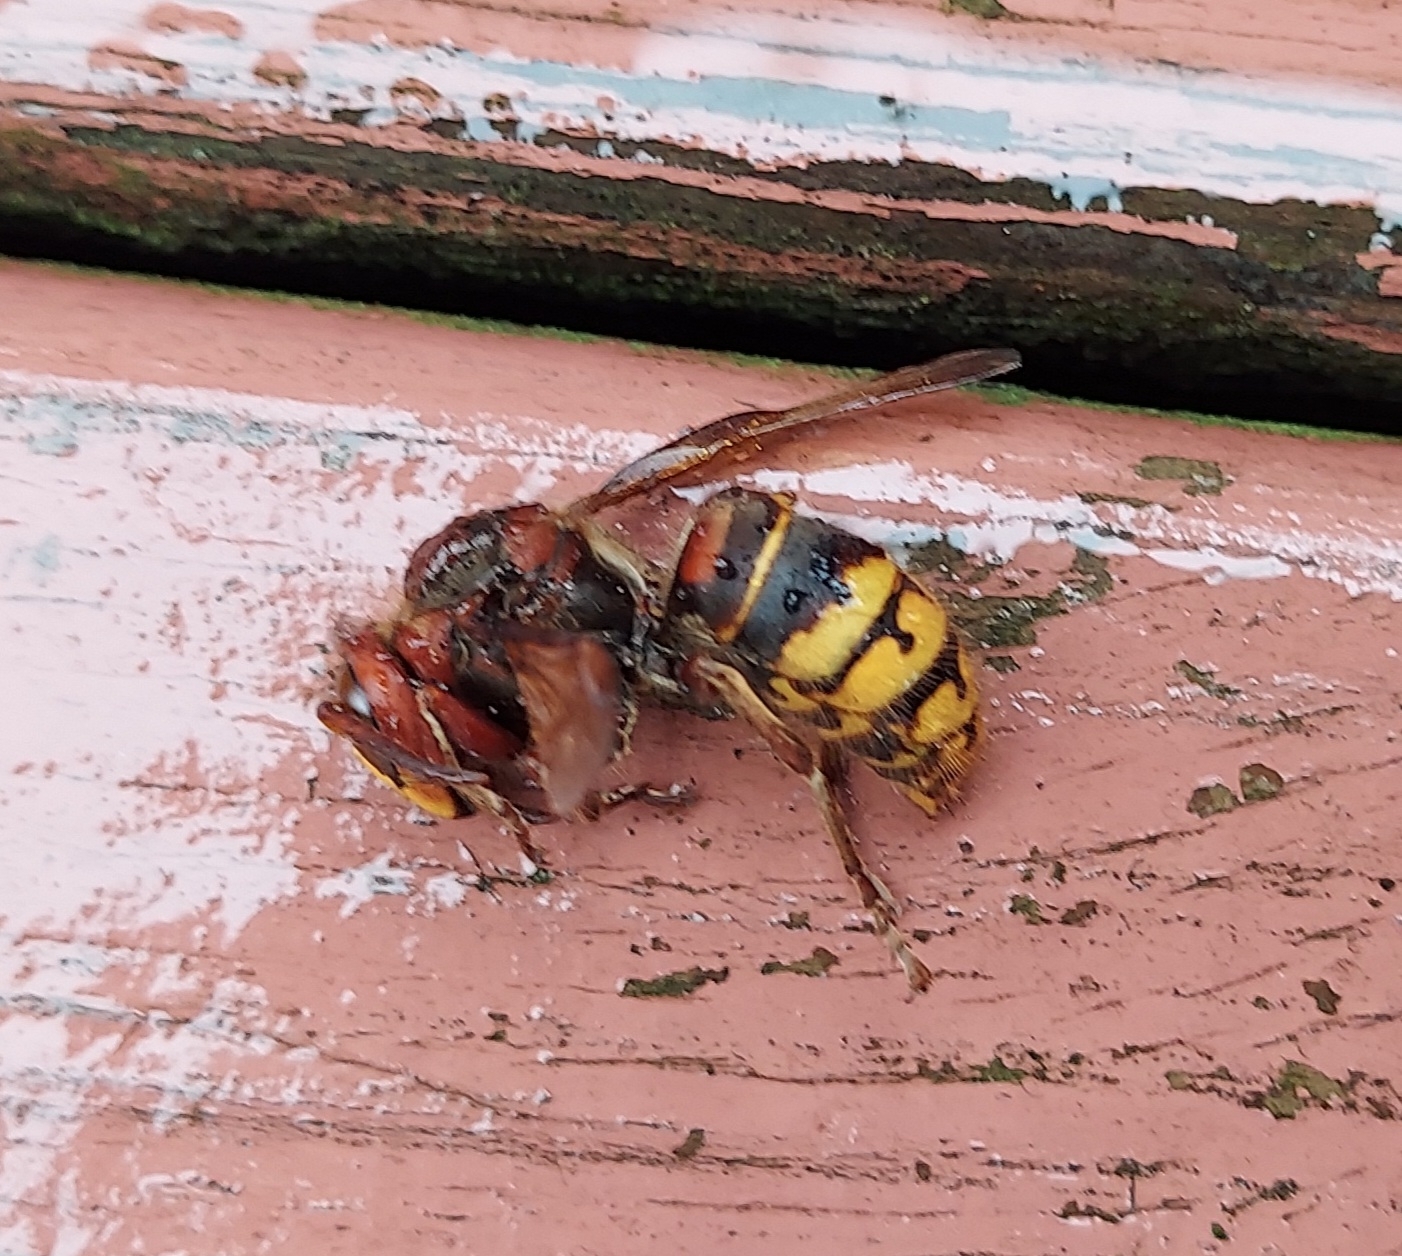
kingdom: Animalia
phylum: Arthropoda
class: Insecta
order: Hymenoptera
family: Vespidae
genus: Vespa
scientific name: Vespa crabro
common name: Hornet
